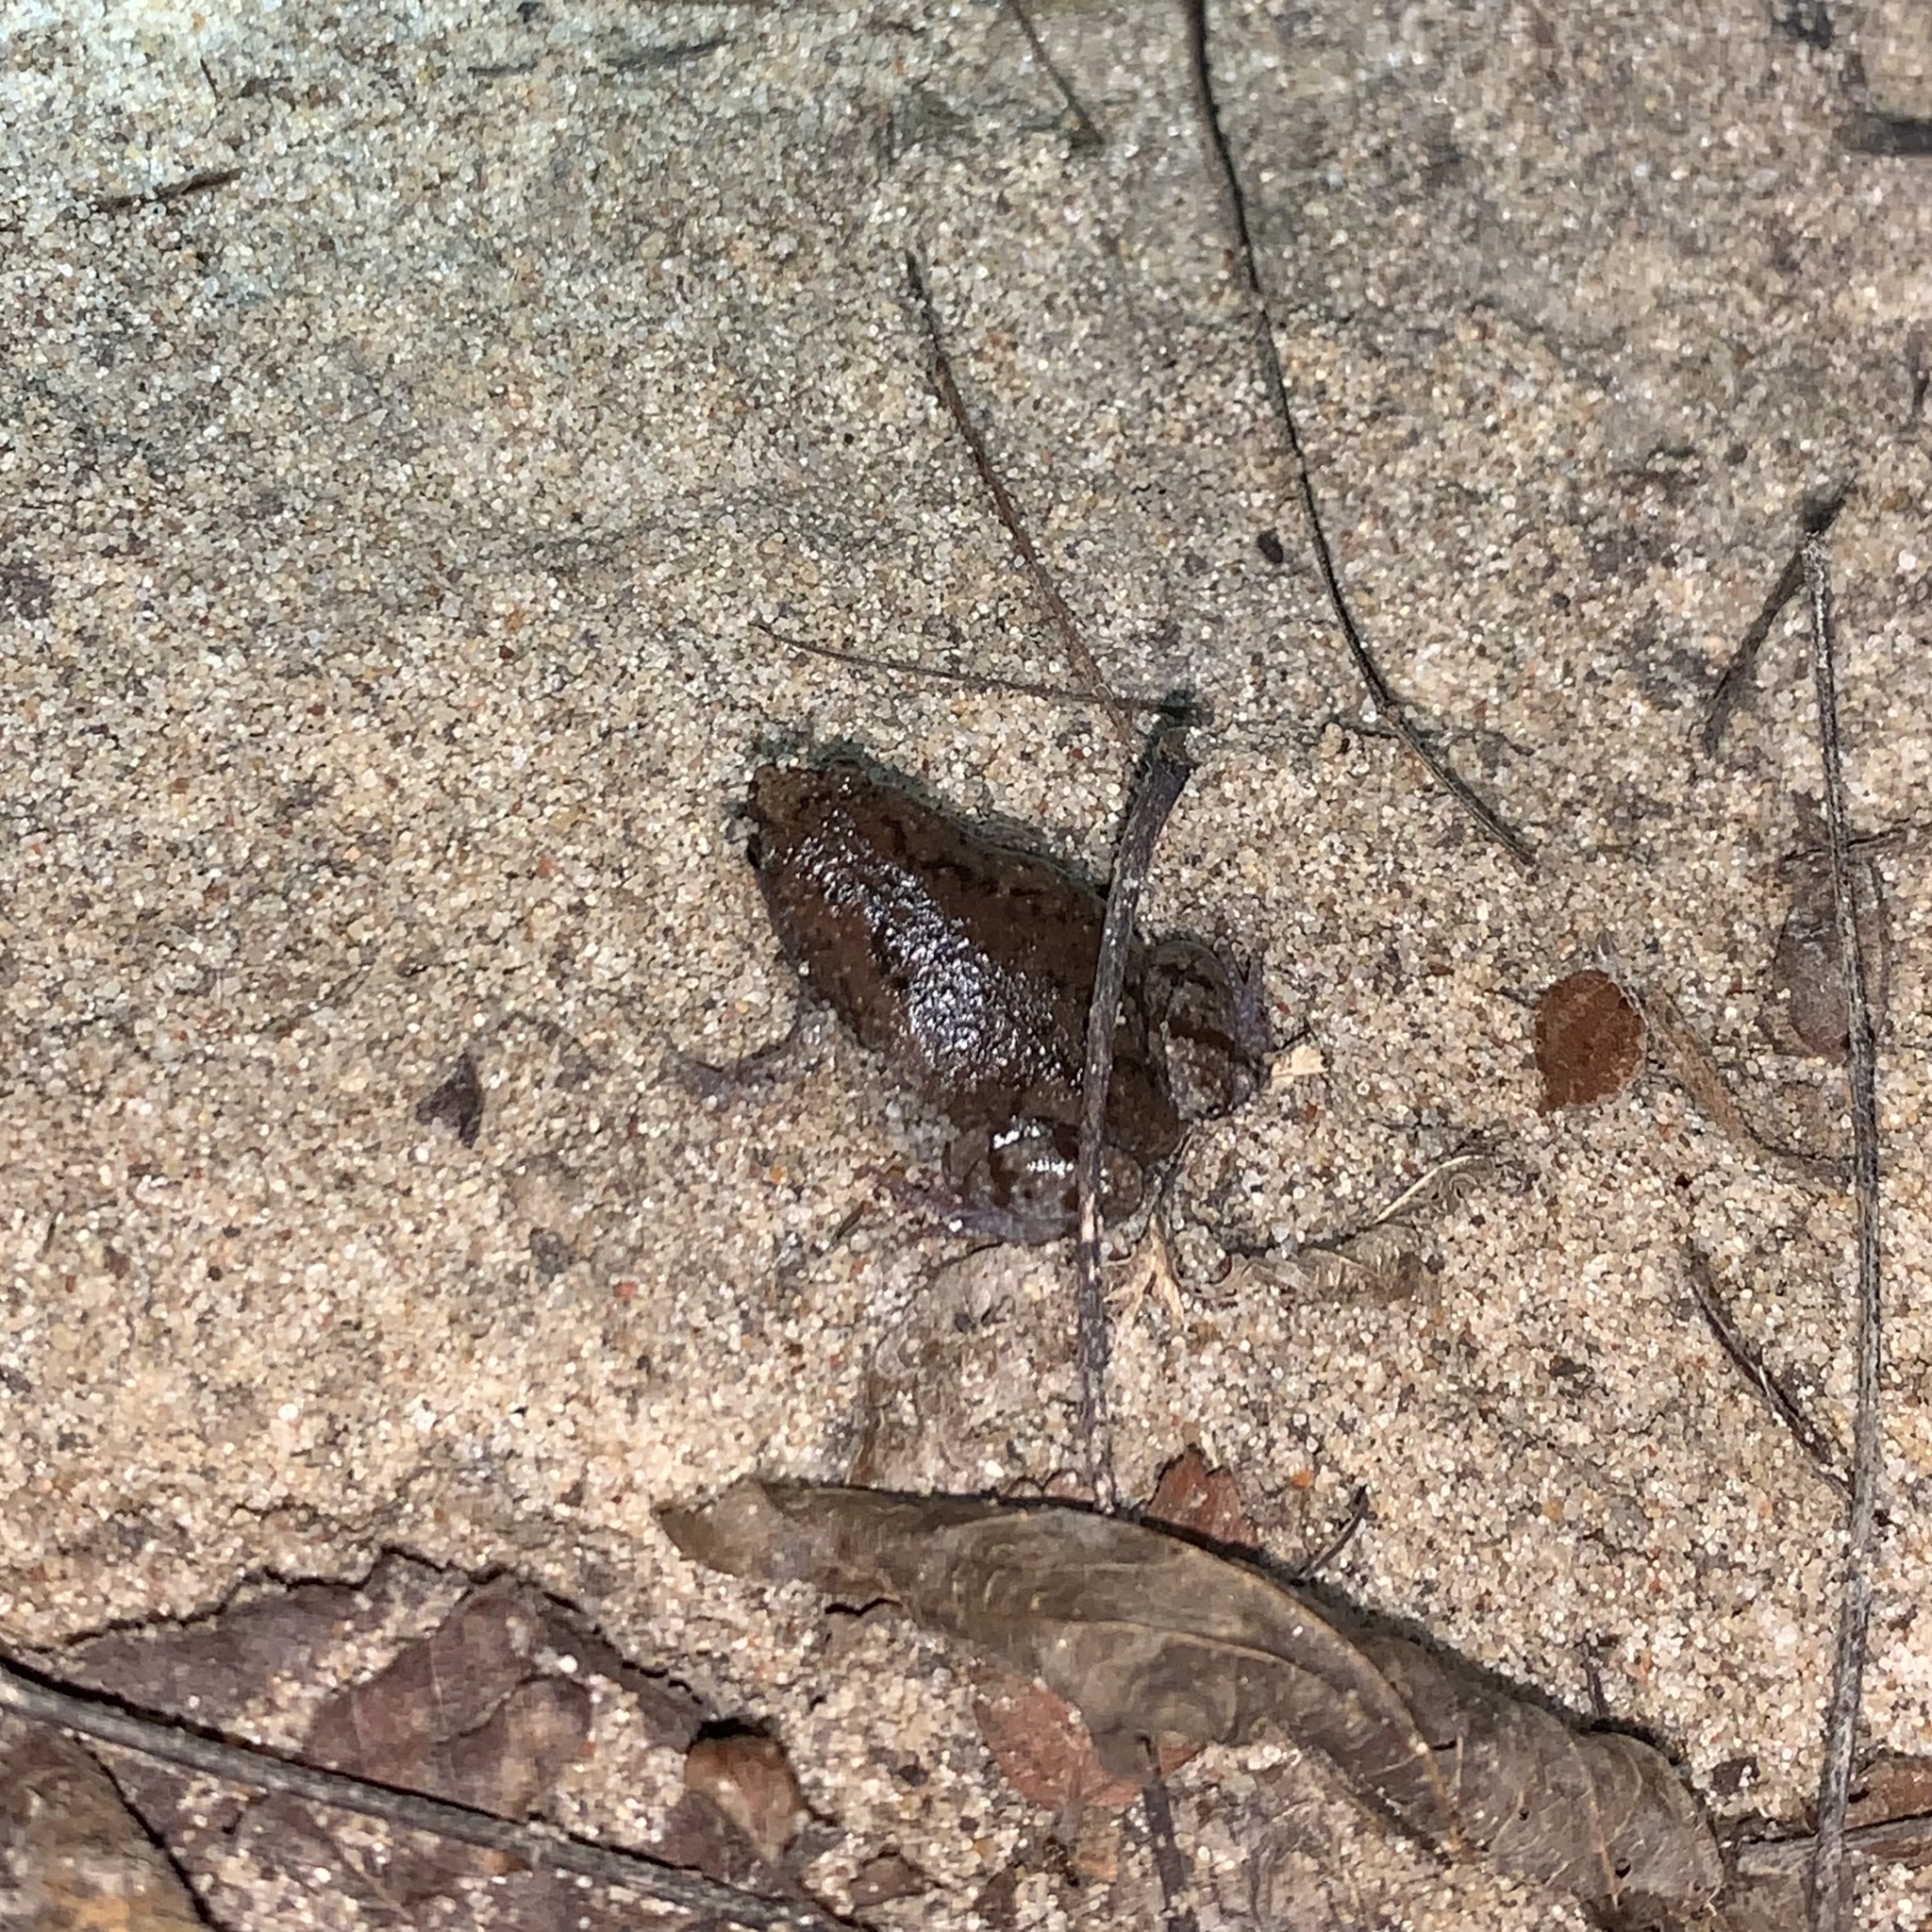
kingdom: Animalia
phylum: Chordata
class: Amphibia
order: Anura
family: Microhylidae
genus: Gastrophryne
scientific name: Gastrophryne carolinensis
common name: Eastern narrowmouth toad
